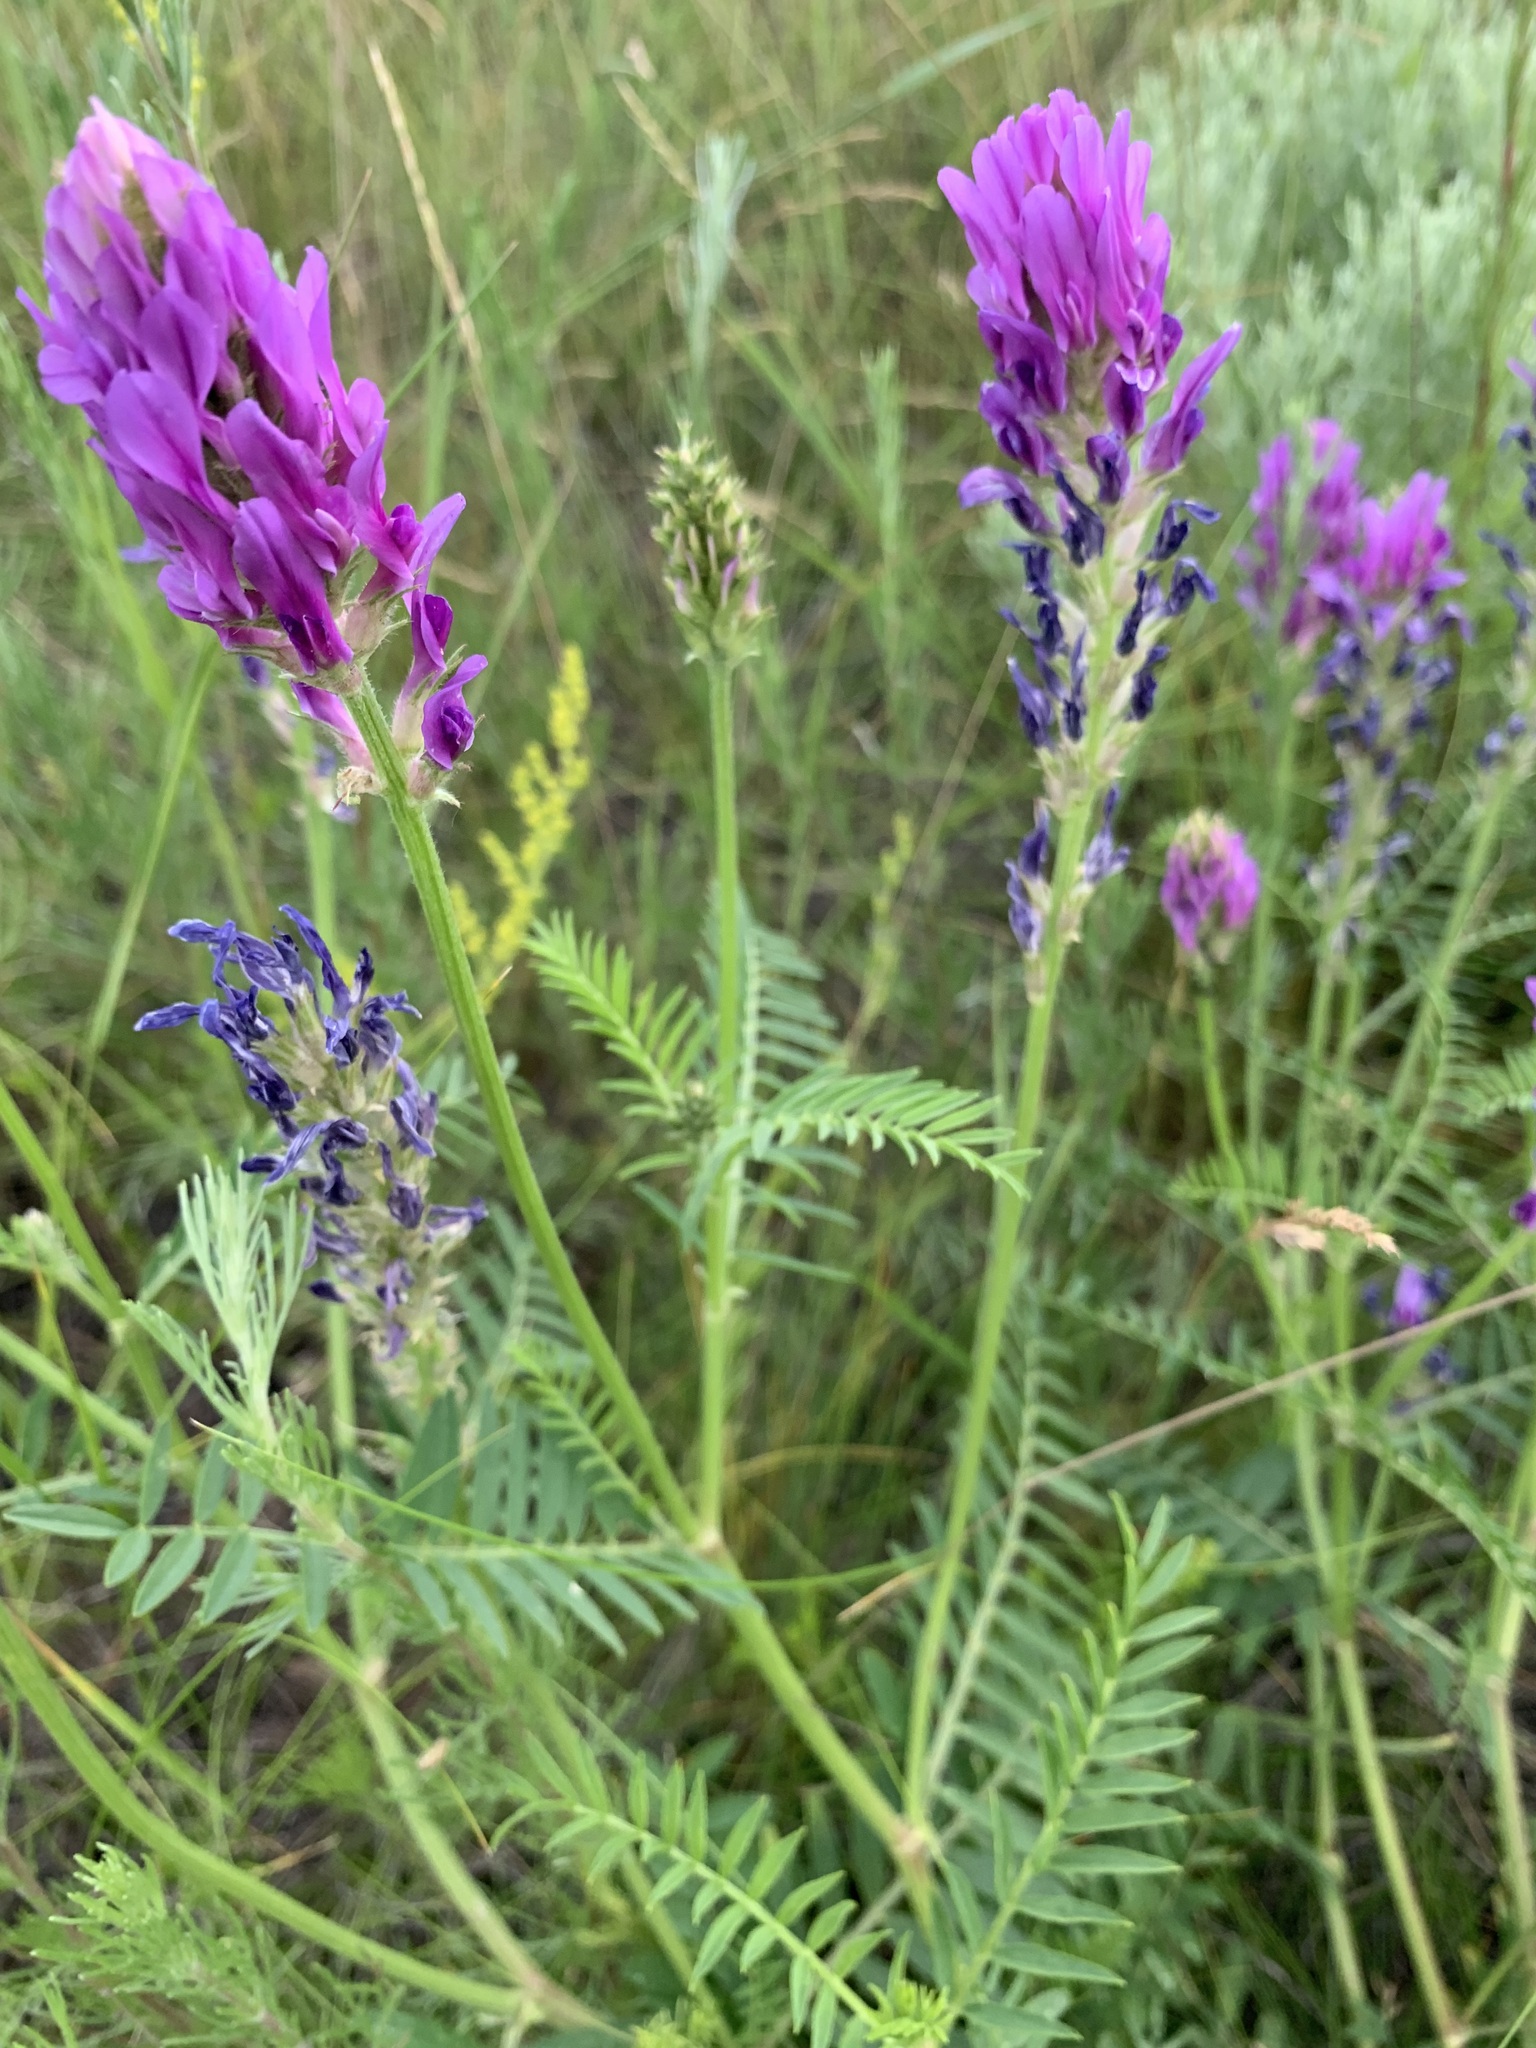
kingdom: Plantae
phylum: Tracheophyta
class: Magnoliopsida
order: Fabales
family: Fabaceae
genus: Astragalus
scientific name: Astragalus onobrychis
